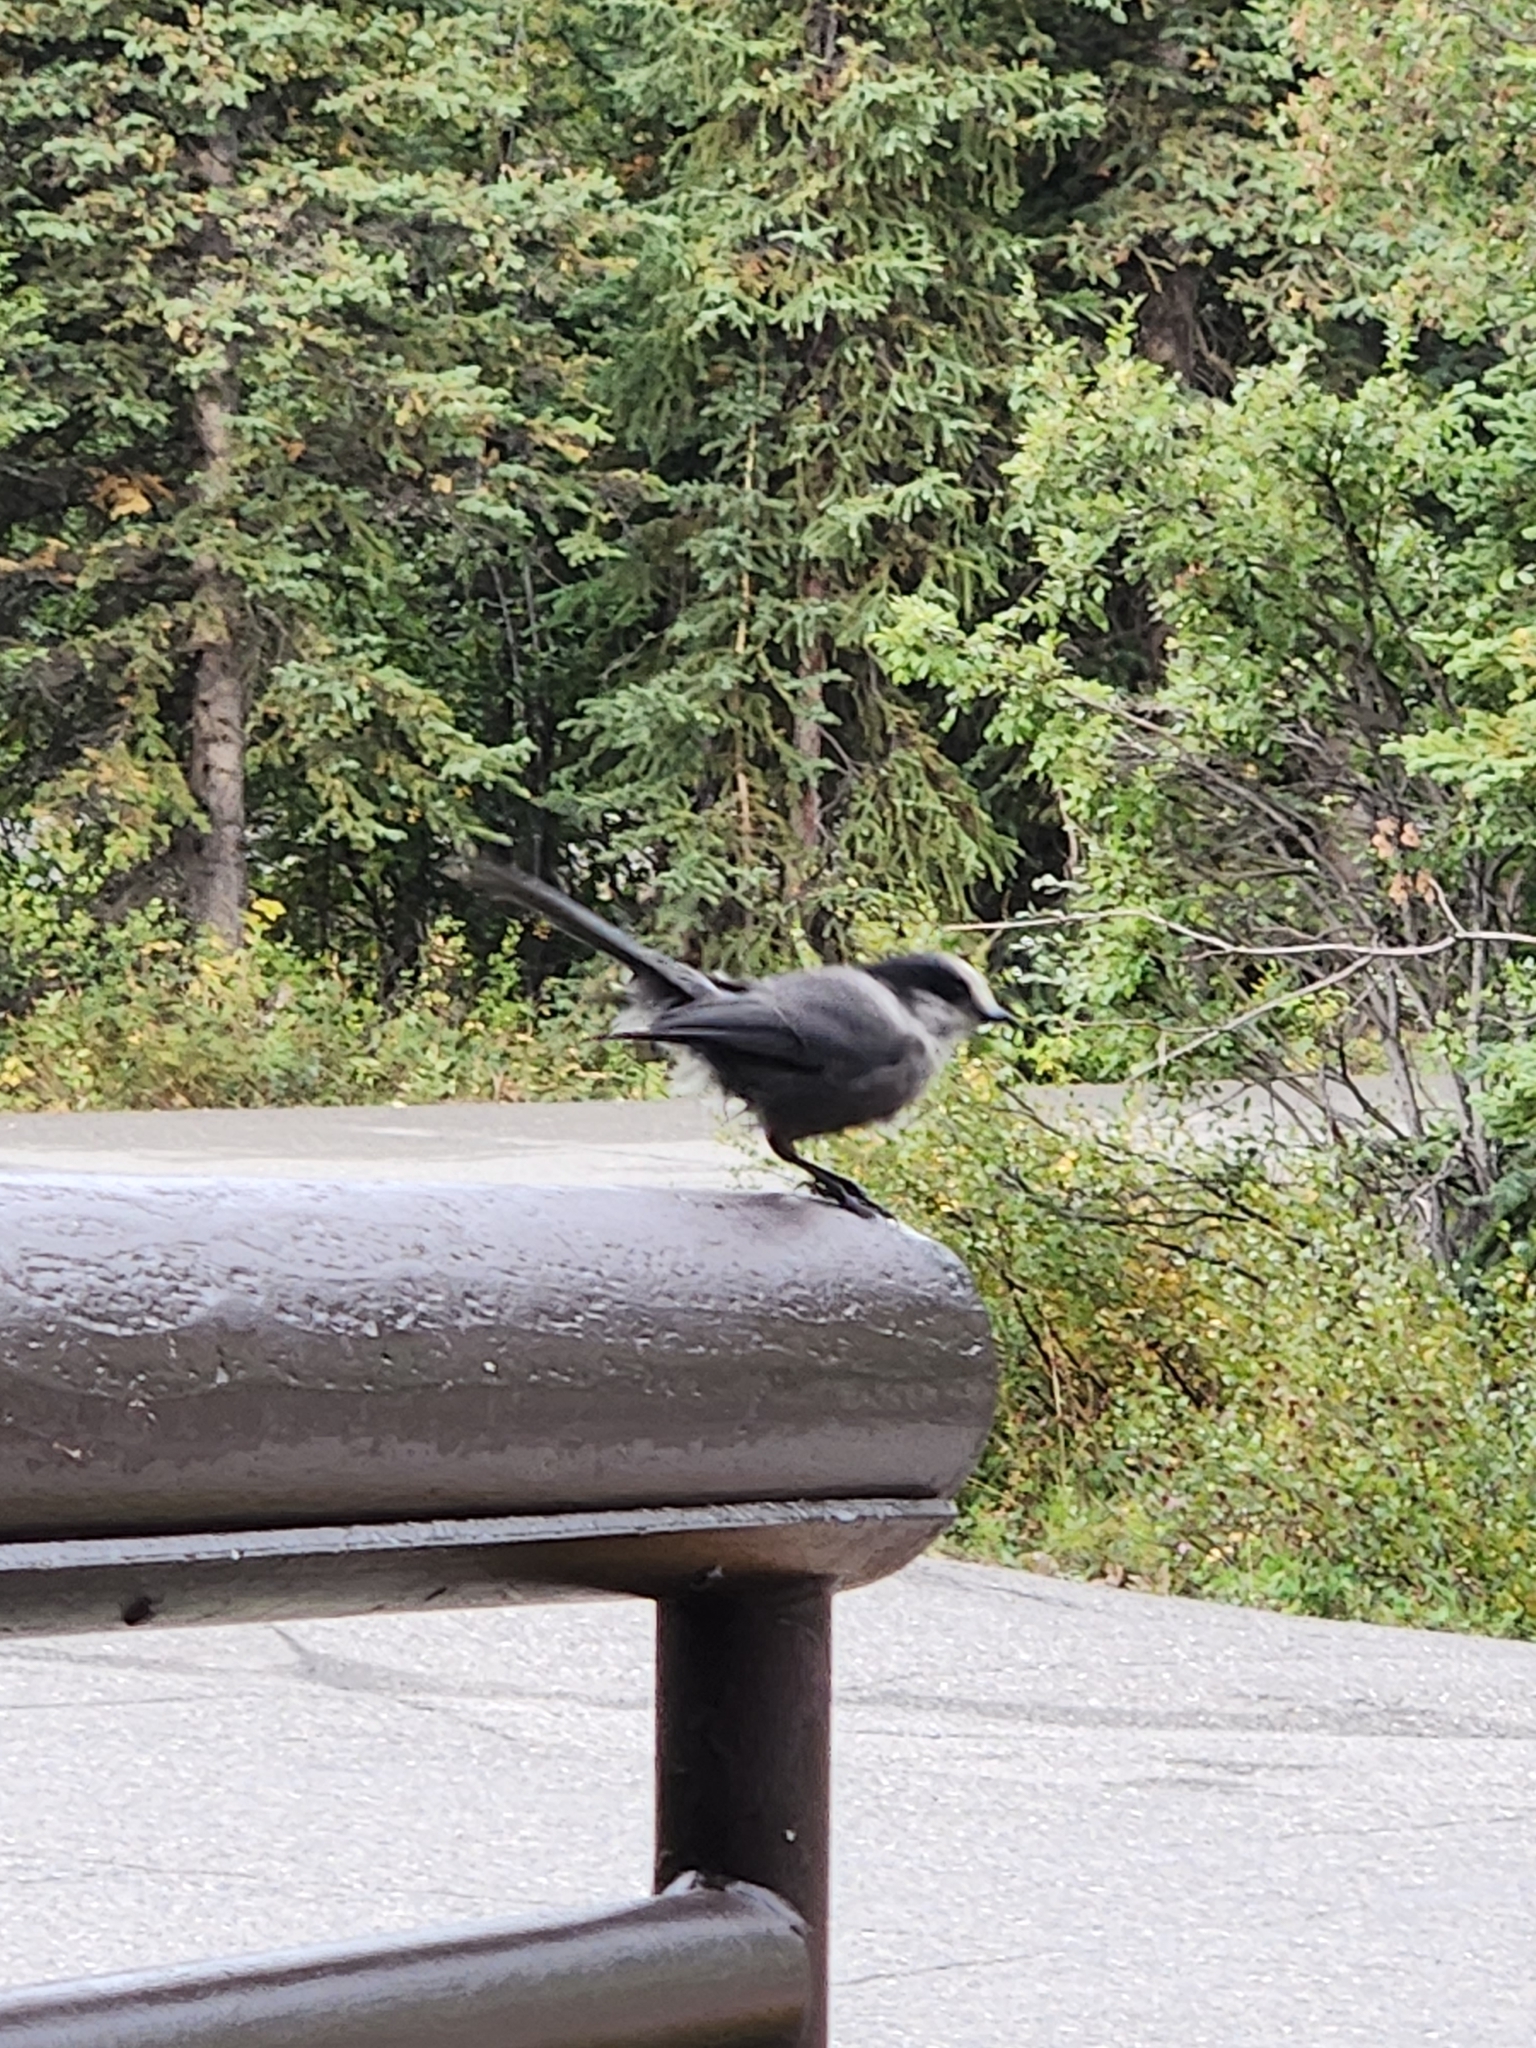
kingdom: Animalia
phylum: Chordata
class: Aves
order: Passeriformes
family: Corvidae
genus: Perisoreus
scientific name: Perisoreus canadensis
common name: Gray jay
